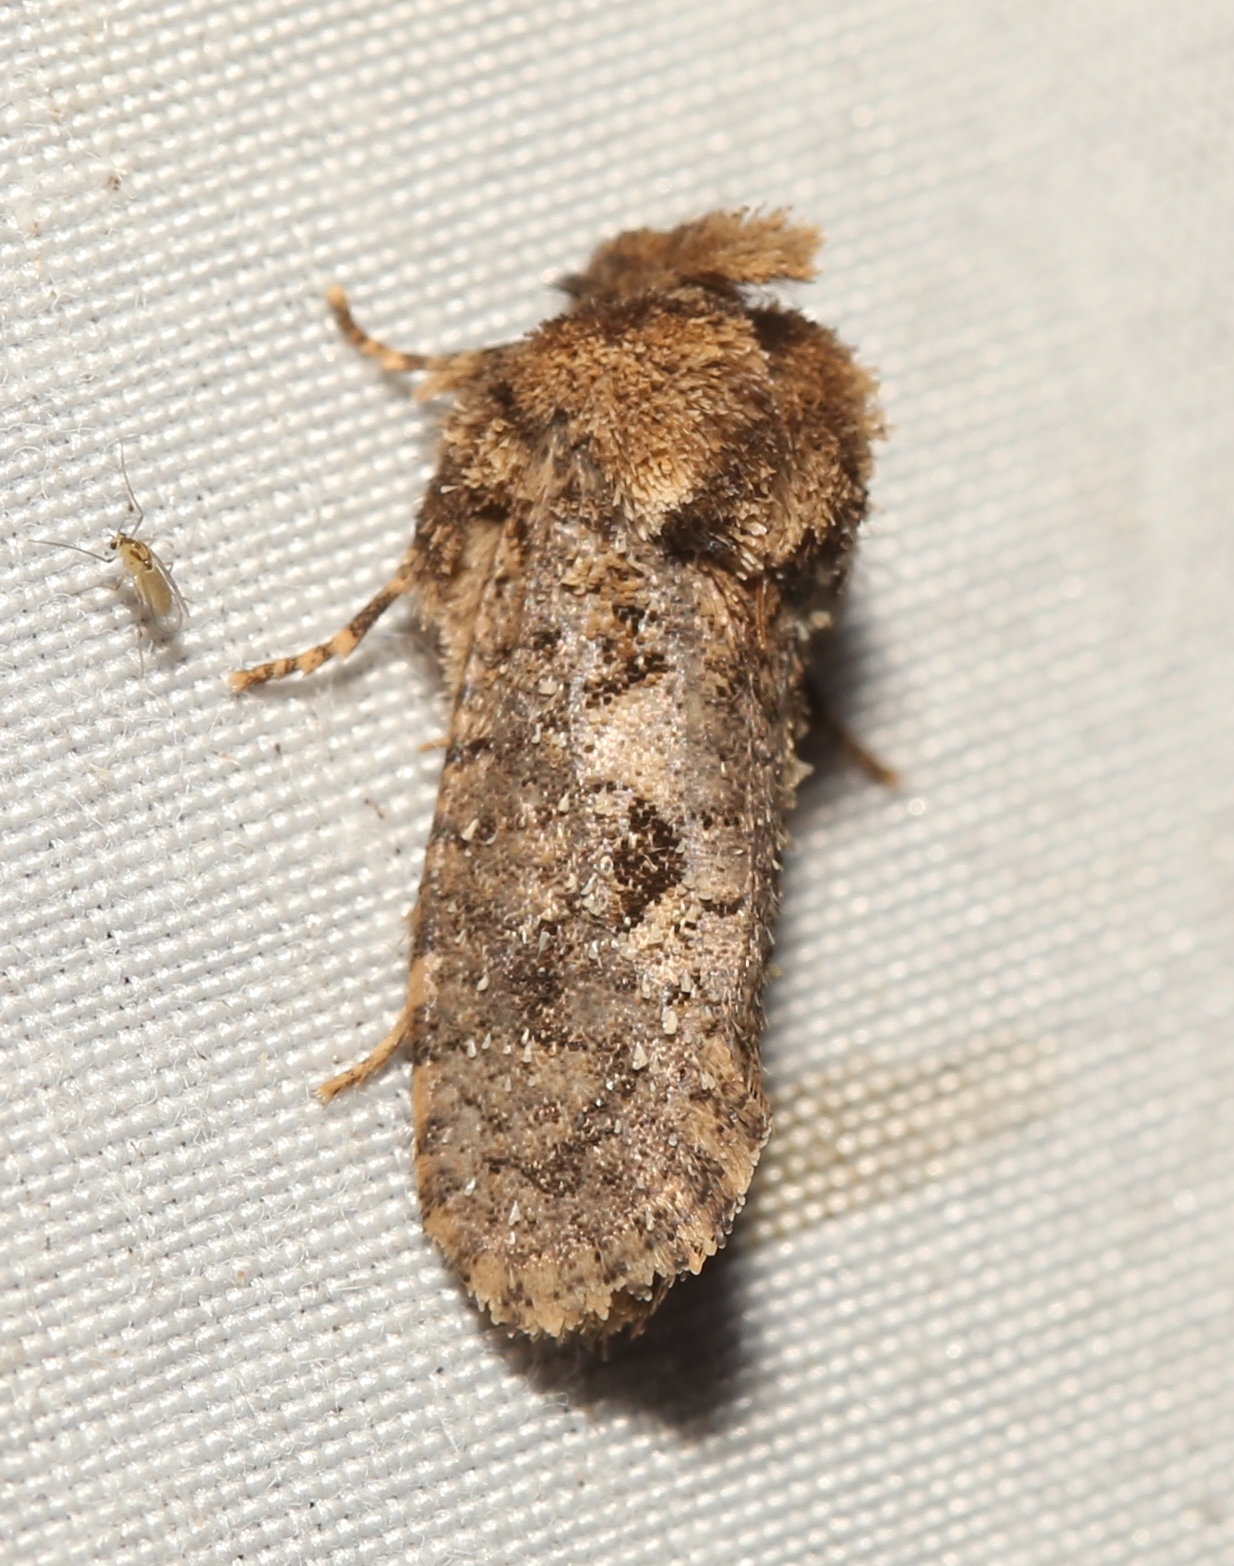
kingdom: Animalia
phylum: Arthropoda
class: Insecta
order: Lepidoptera
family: Tineidae
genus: Acrolophus
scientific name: Acrolophus arcanella
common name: Arcane grass tubeworm moth
